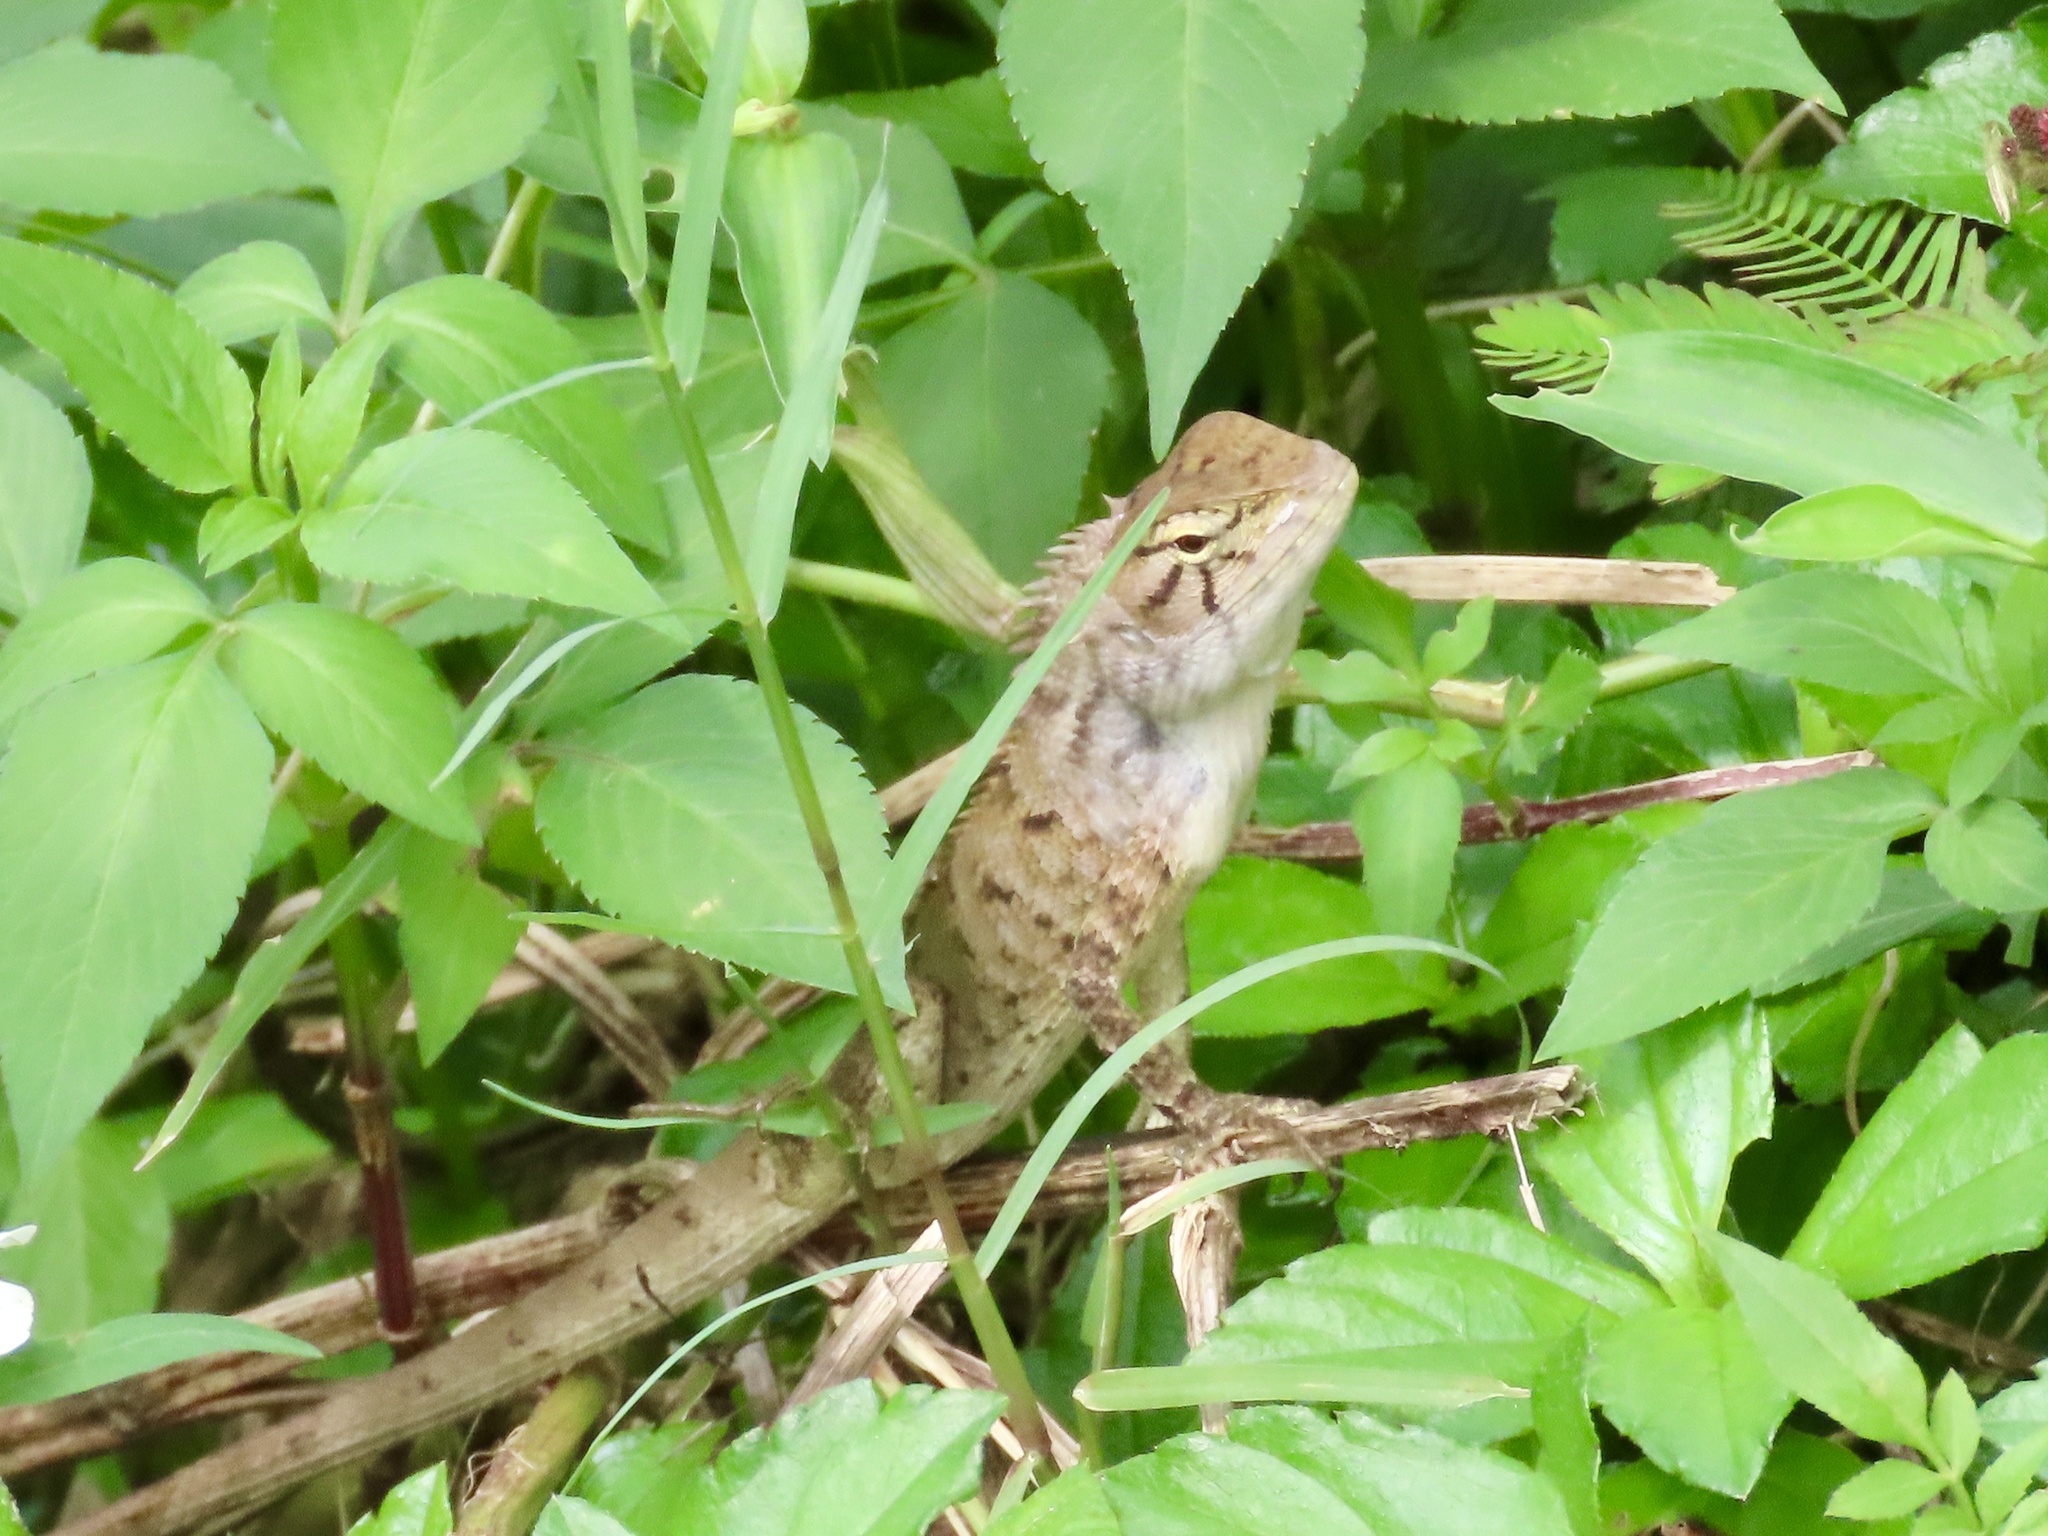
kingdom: Animalia
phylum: Chordata
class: Squamata
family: Agamidae
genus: Calotes
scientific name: Calotes versicolor
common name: Oriental garden lizard
